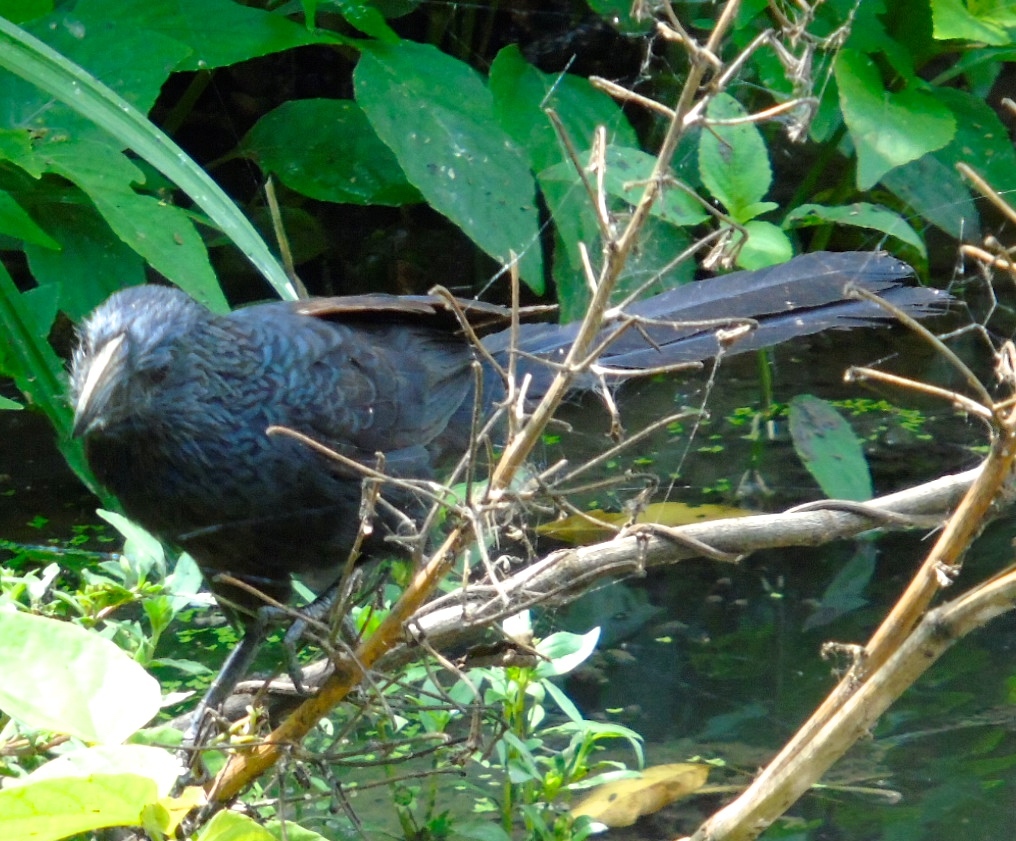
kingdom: Animalia
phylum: Chordata
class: Aves
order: Cuculiformes
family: Cuculidae
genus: Crotophaga
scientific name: Crotophaga sulcirostris
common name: Groove-billed ani
